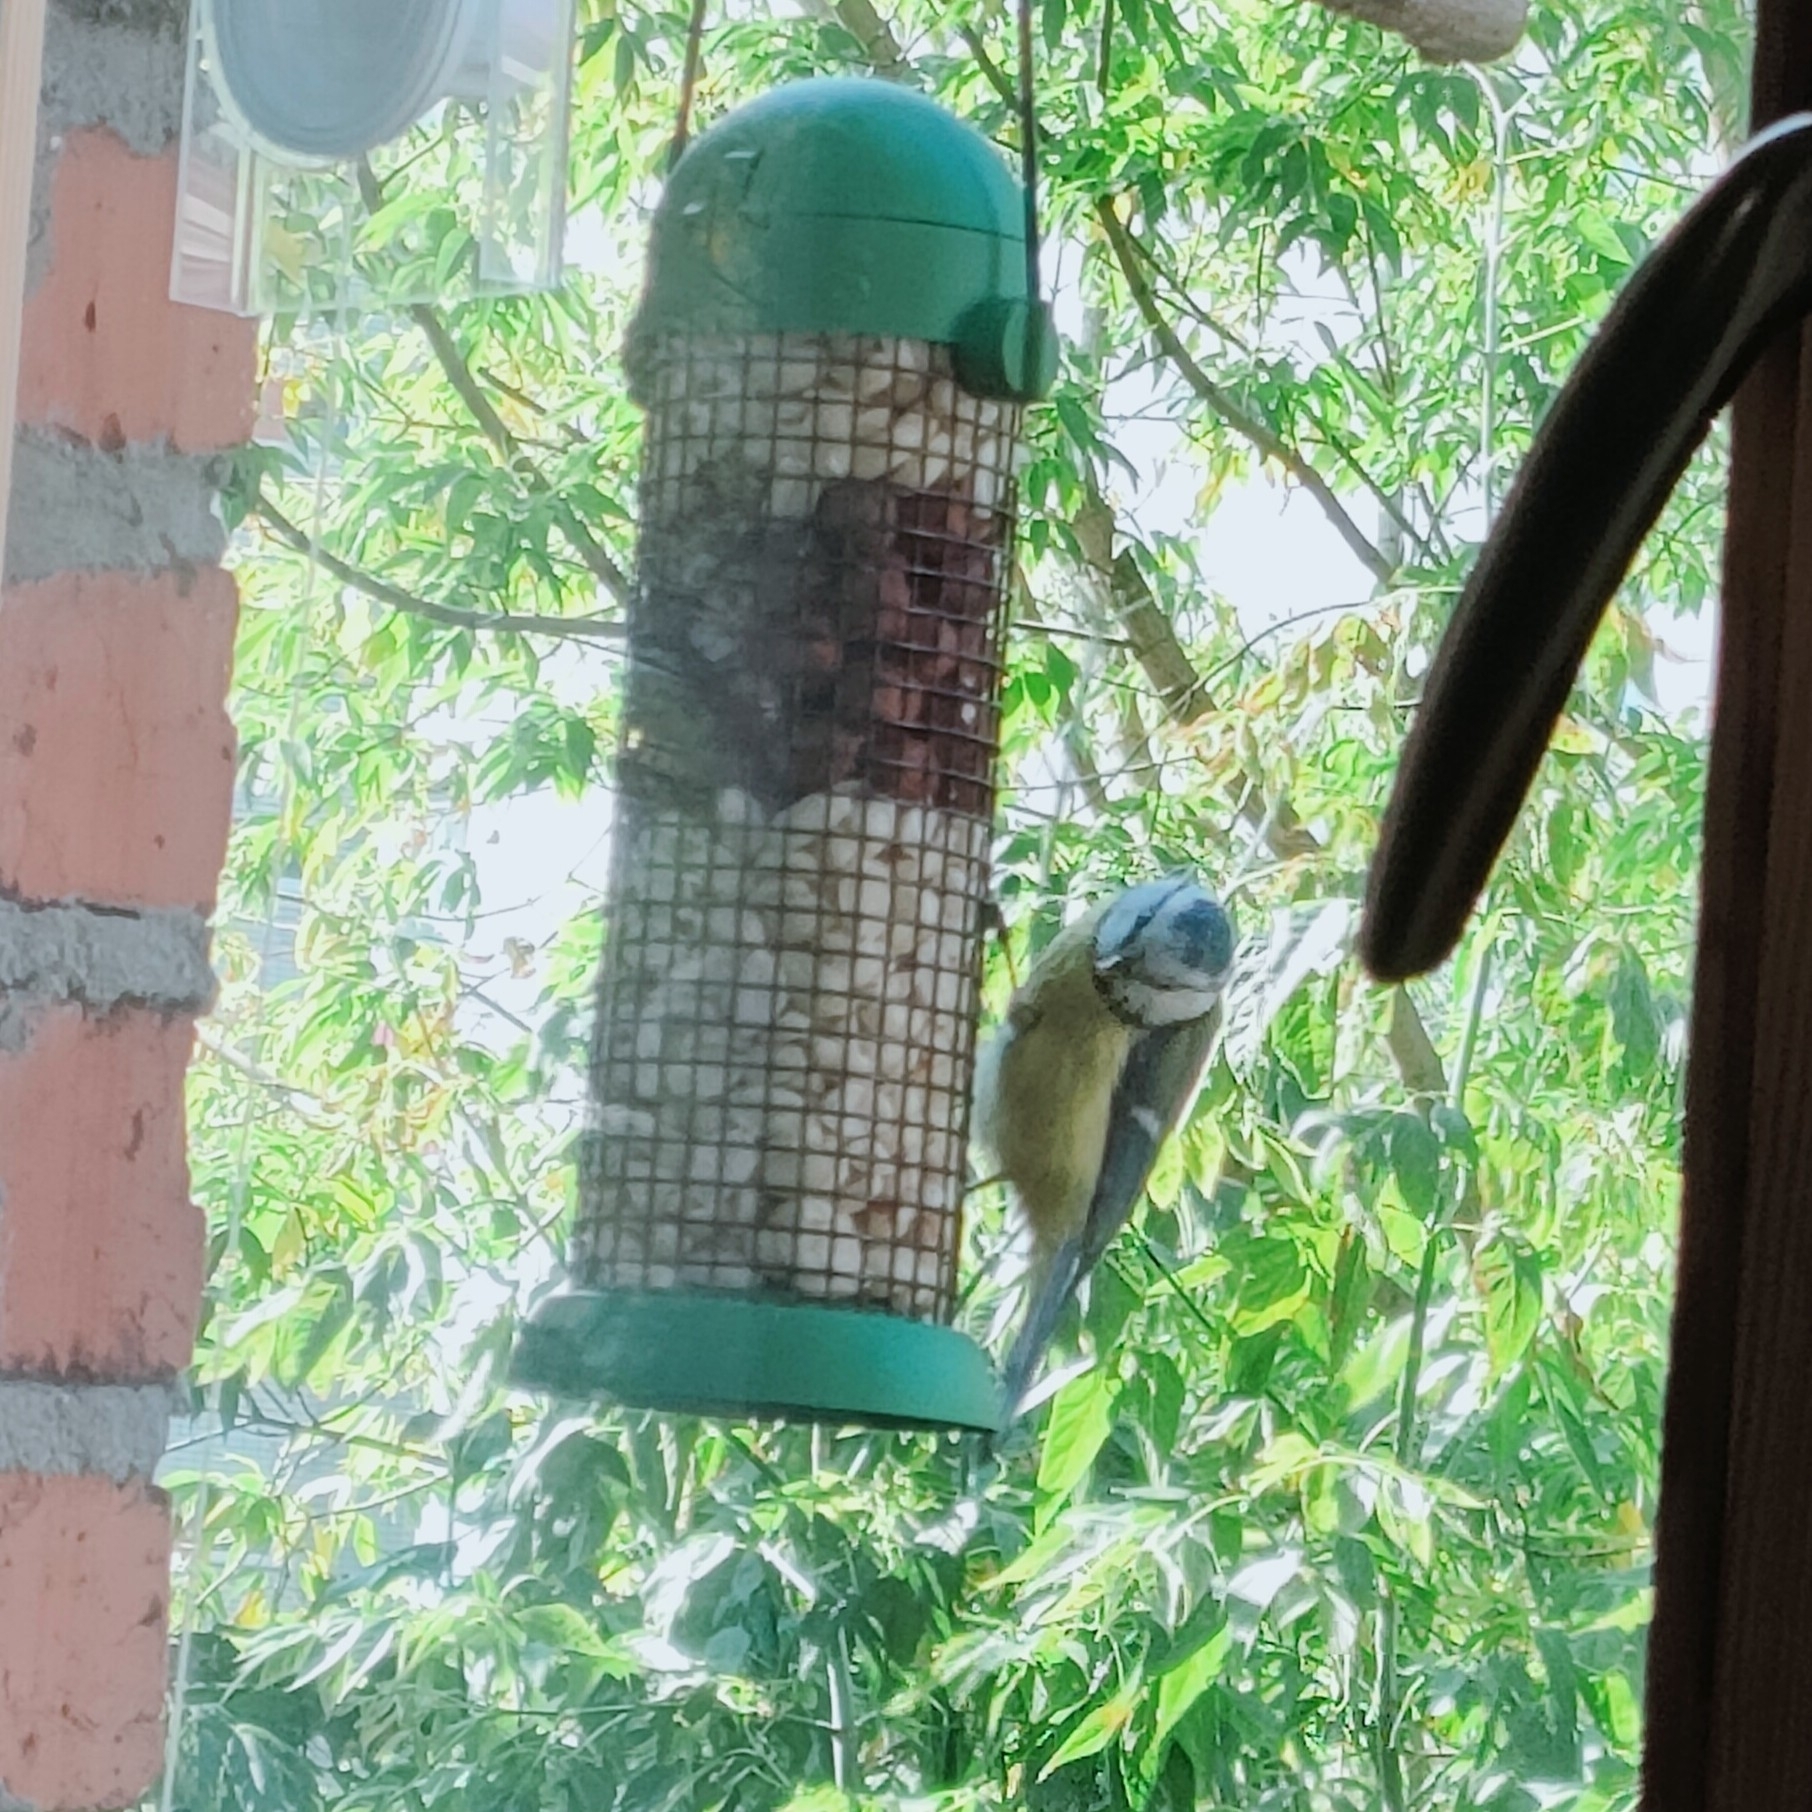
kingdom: Animalia
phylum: Chordata
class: Aves
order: Passeriformes
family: Paridae
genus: Cyanistes
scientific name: Cyanistes caeruleus
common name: Eurasian blue tit
